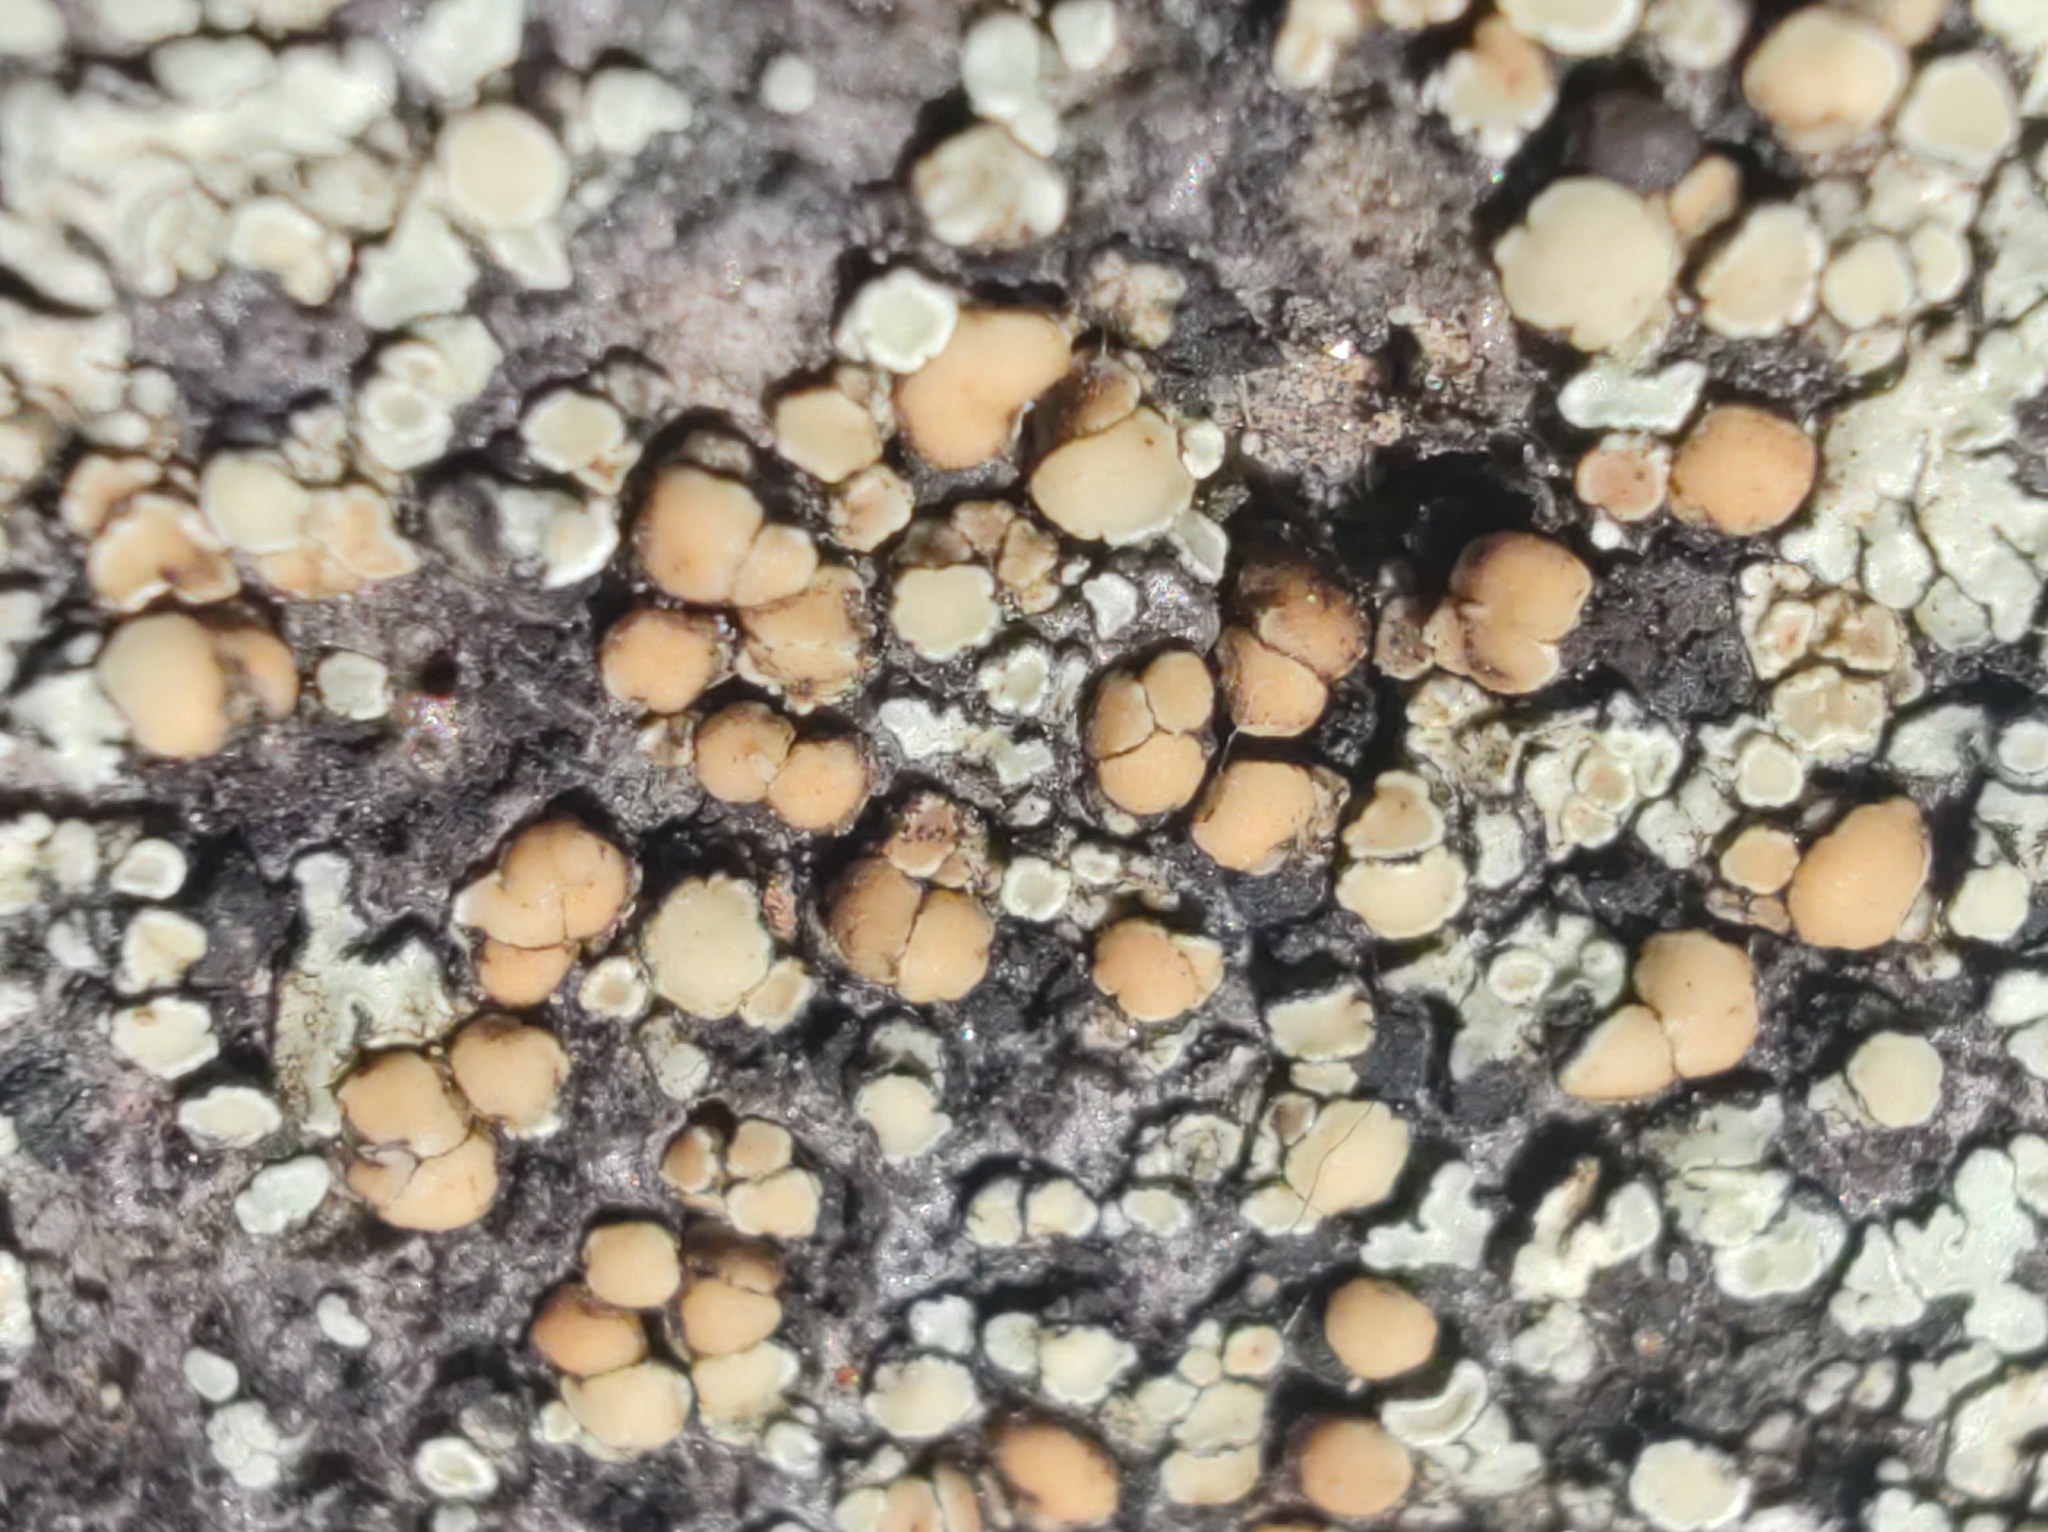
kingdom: Fungi
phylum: Ascomycota
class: Lecanoromycetes
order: Lecanorales
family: Lecanoraceae
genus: Protoparmeliopsis
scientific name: Protoparmeliopsis muralis
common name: Stonewall rim lichen
